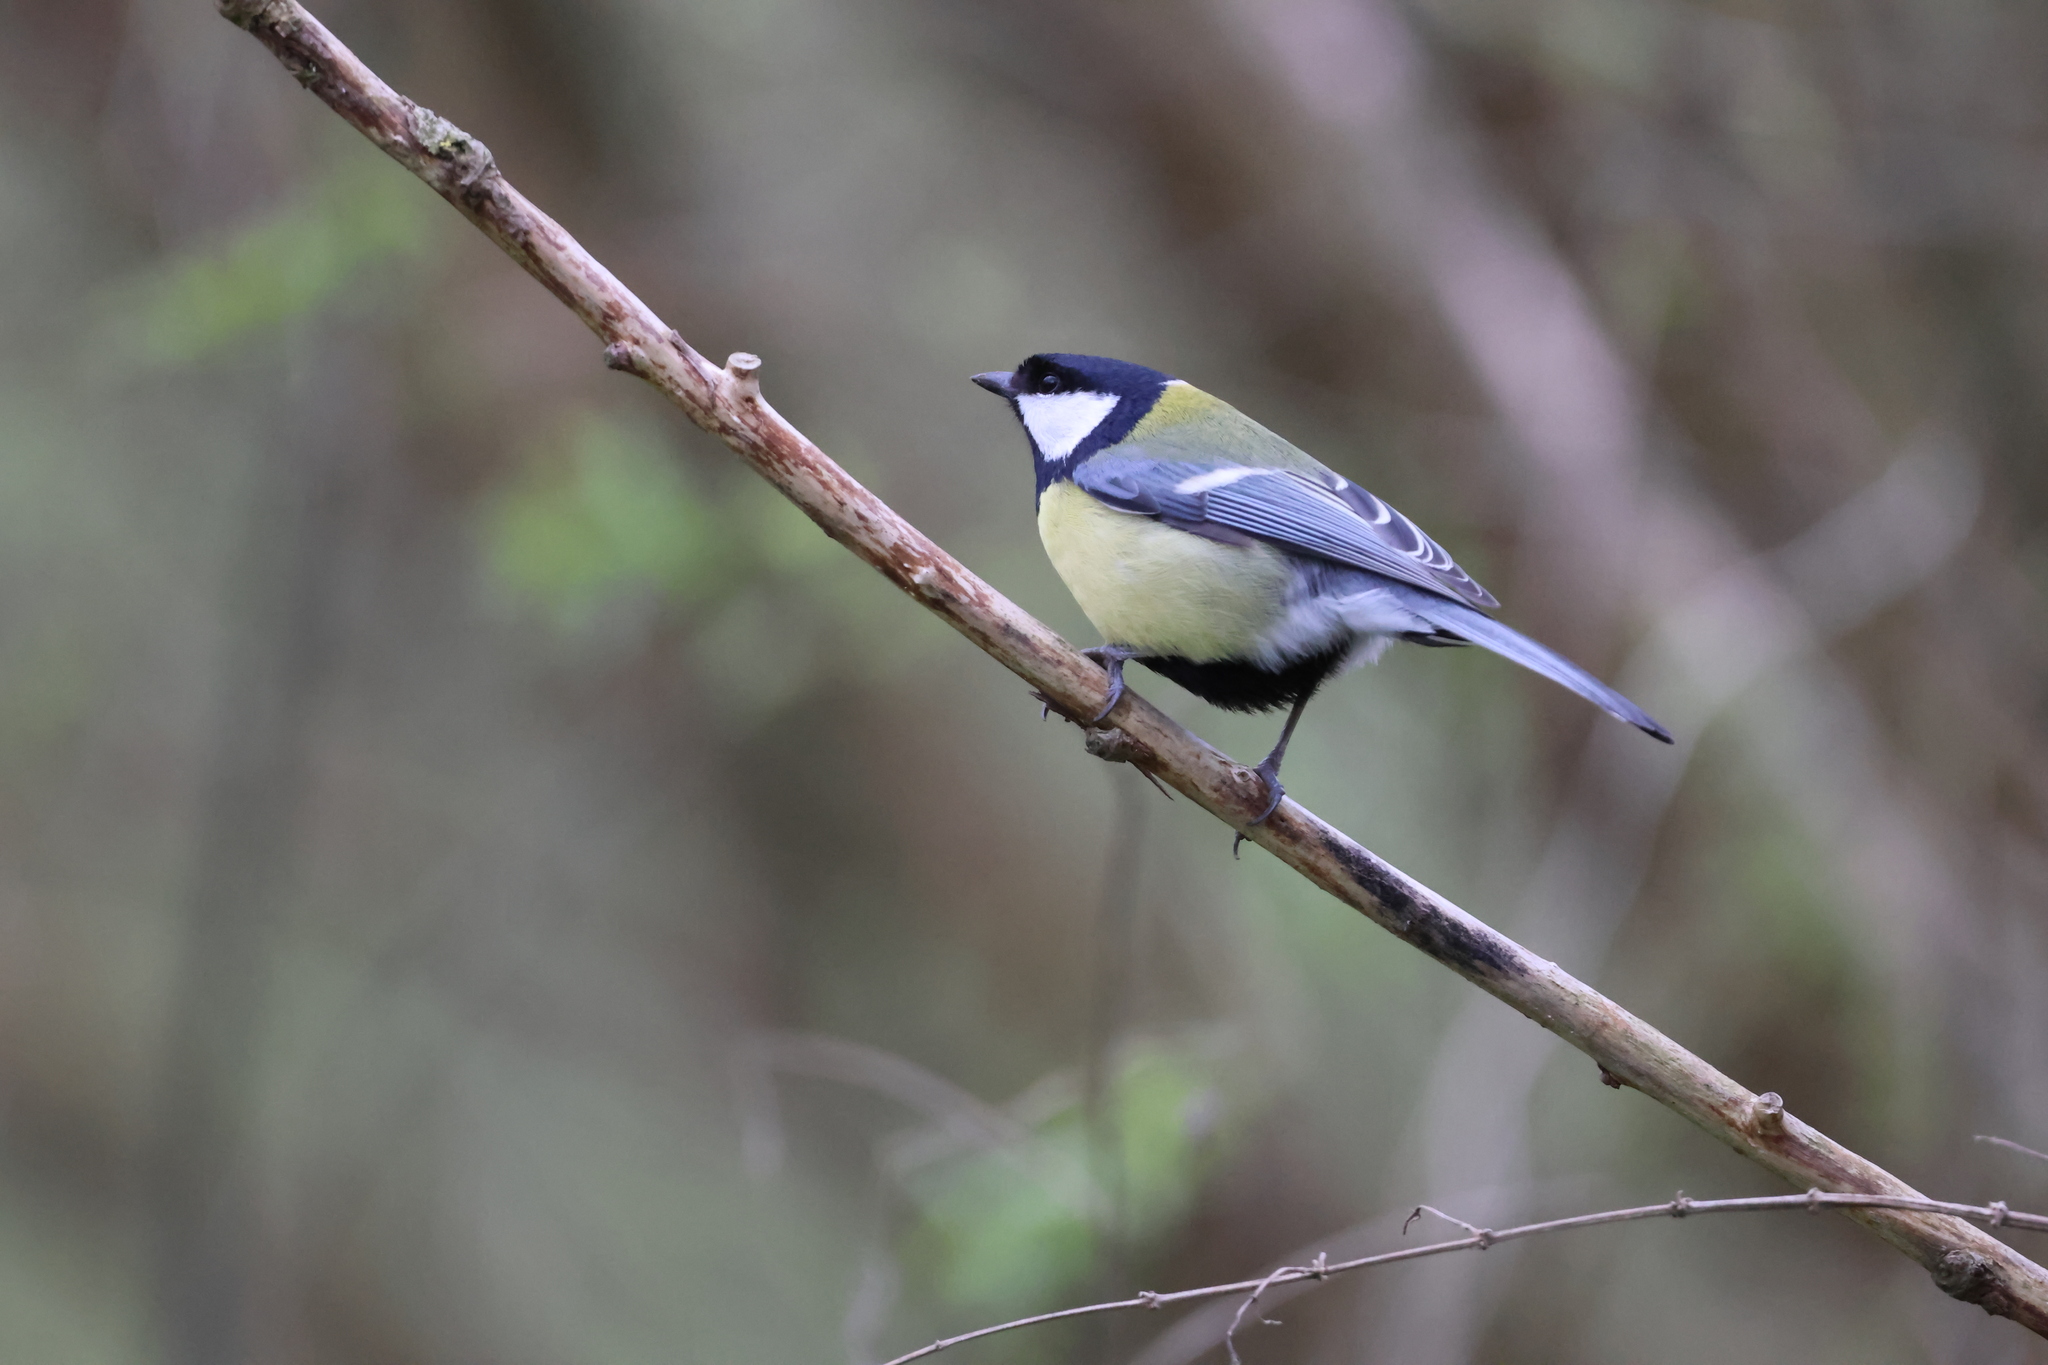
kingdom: Animalia
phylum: Chordata
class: Aves
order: Passeriformes
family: Paridae
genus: Parus
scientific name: Parus major
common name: Great tit
